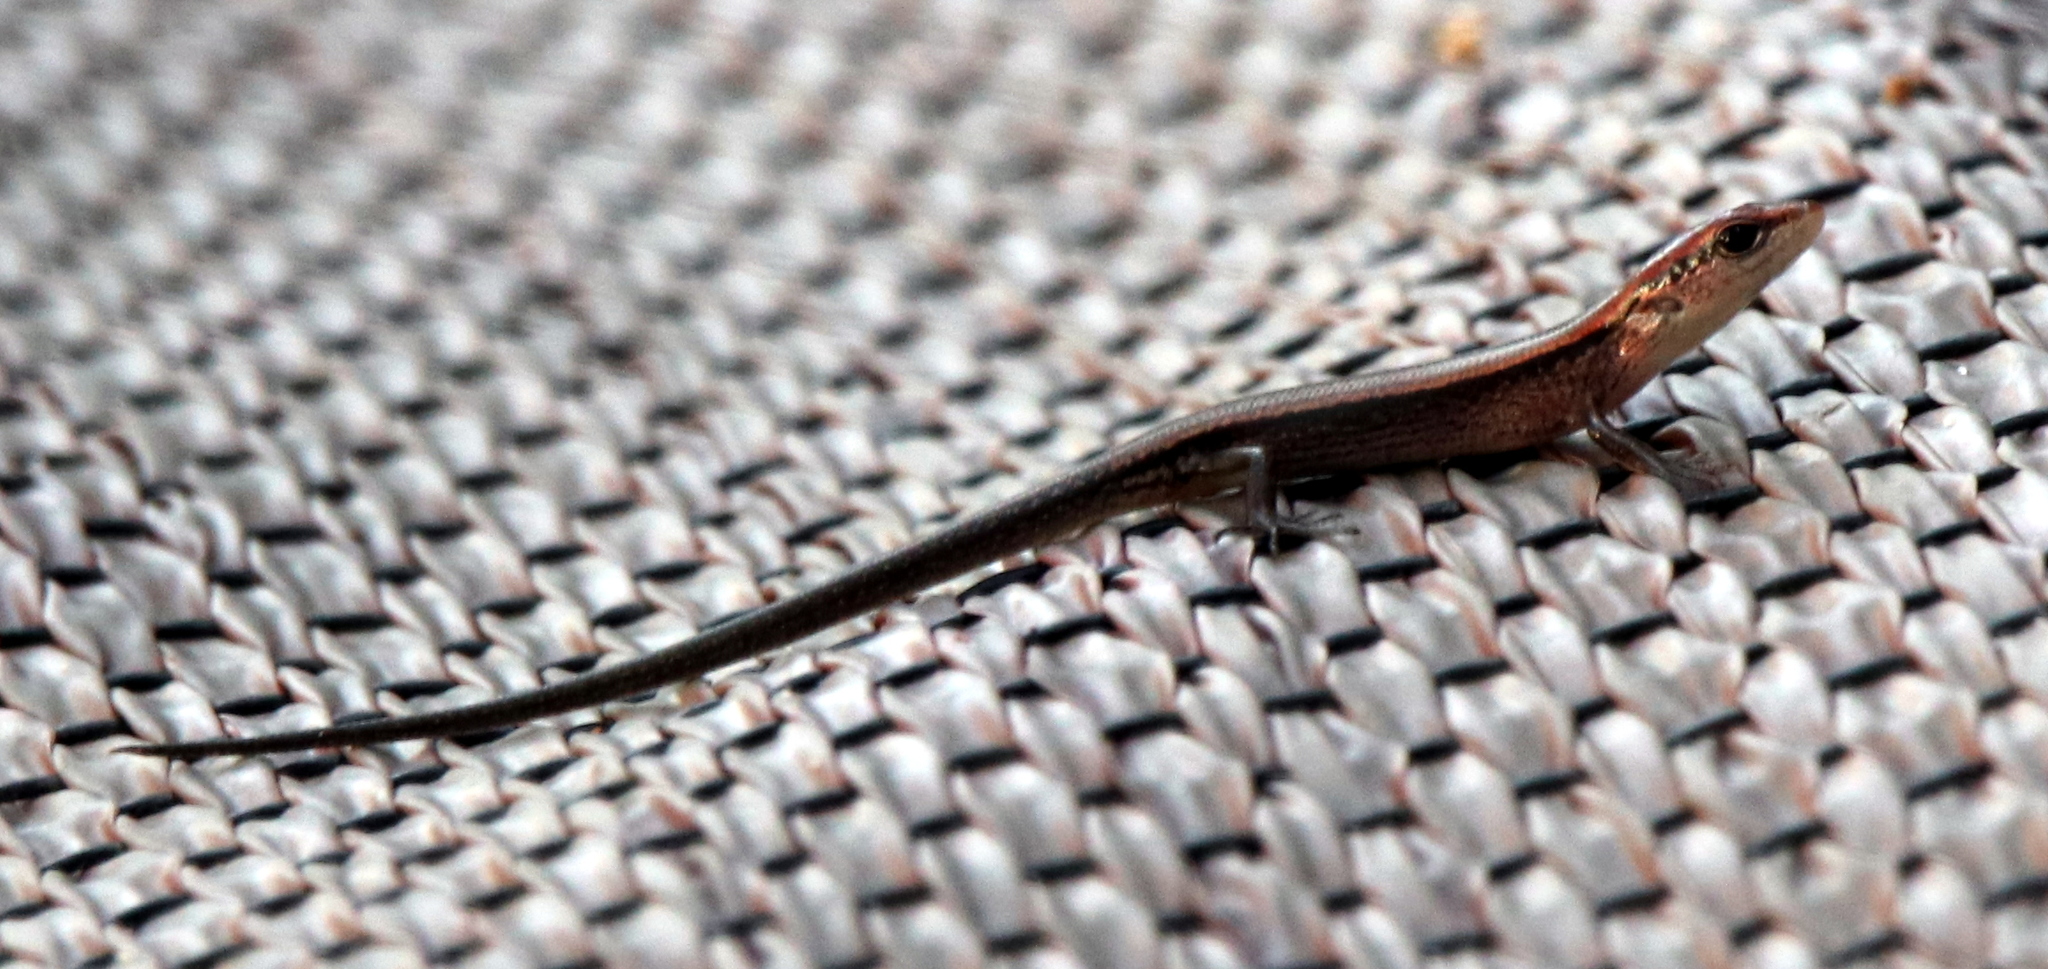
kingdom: Animalia
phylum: Chordata
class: Squamata
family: Scincidae
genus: Scincella
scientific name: Scincella lateralis
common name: Ground skink
